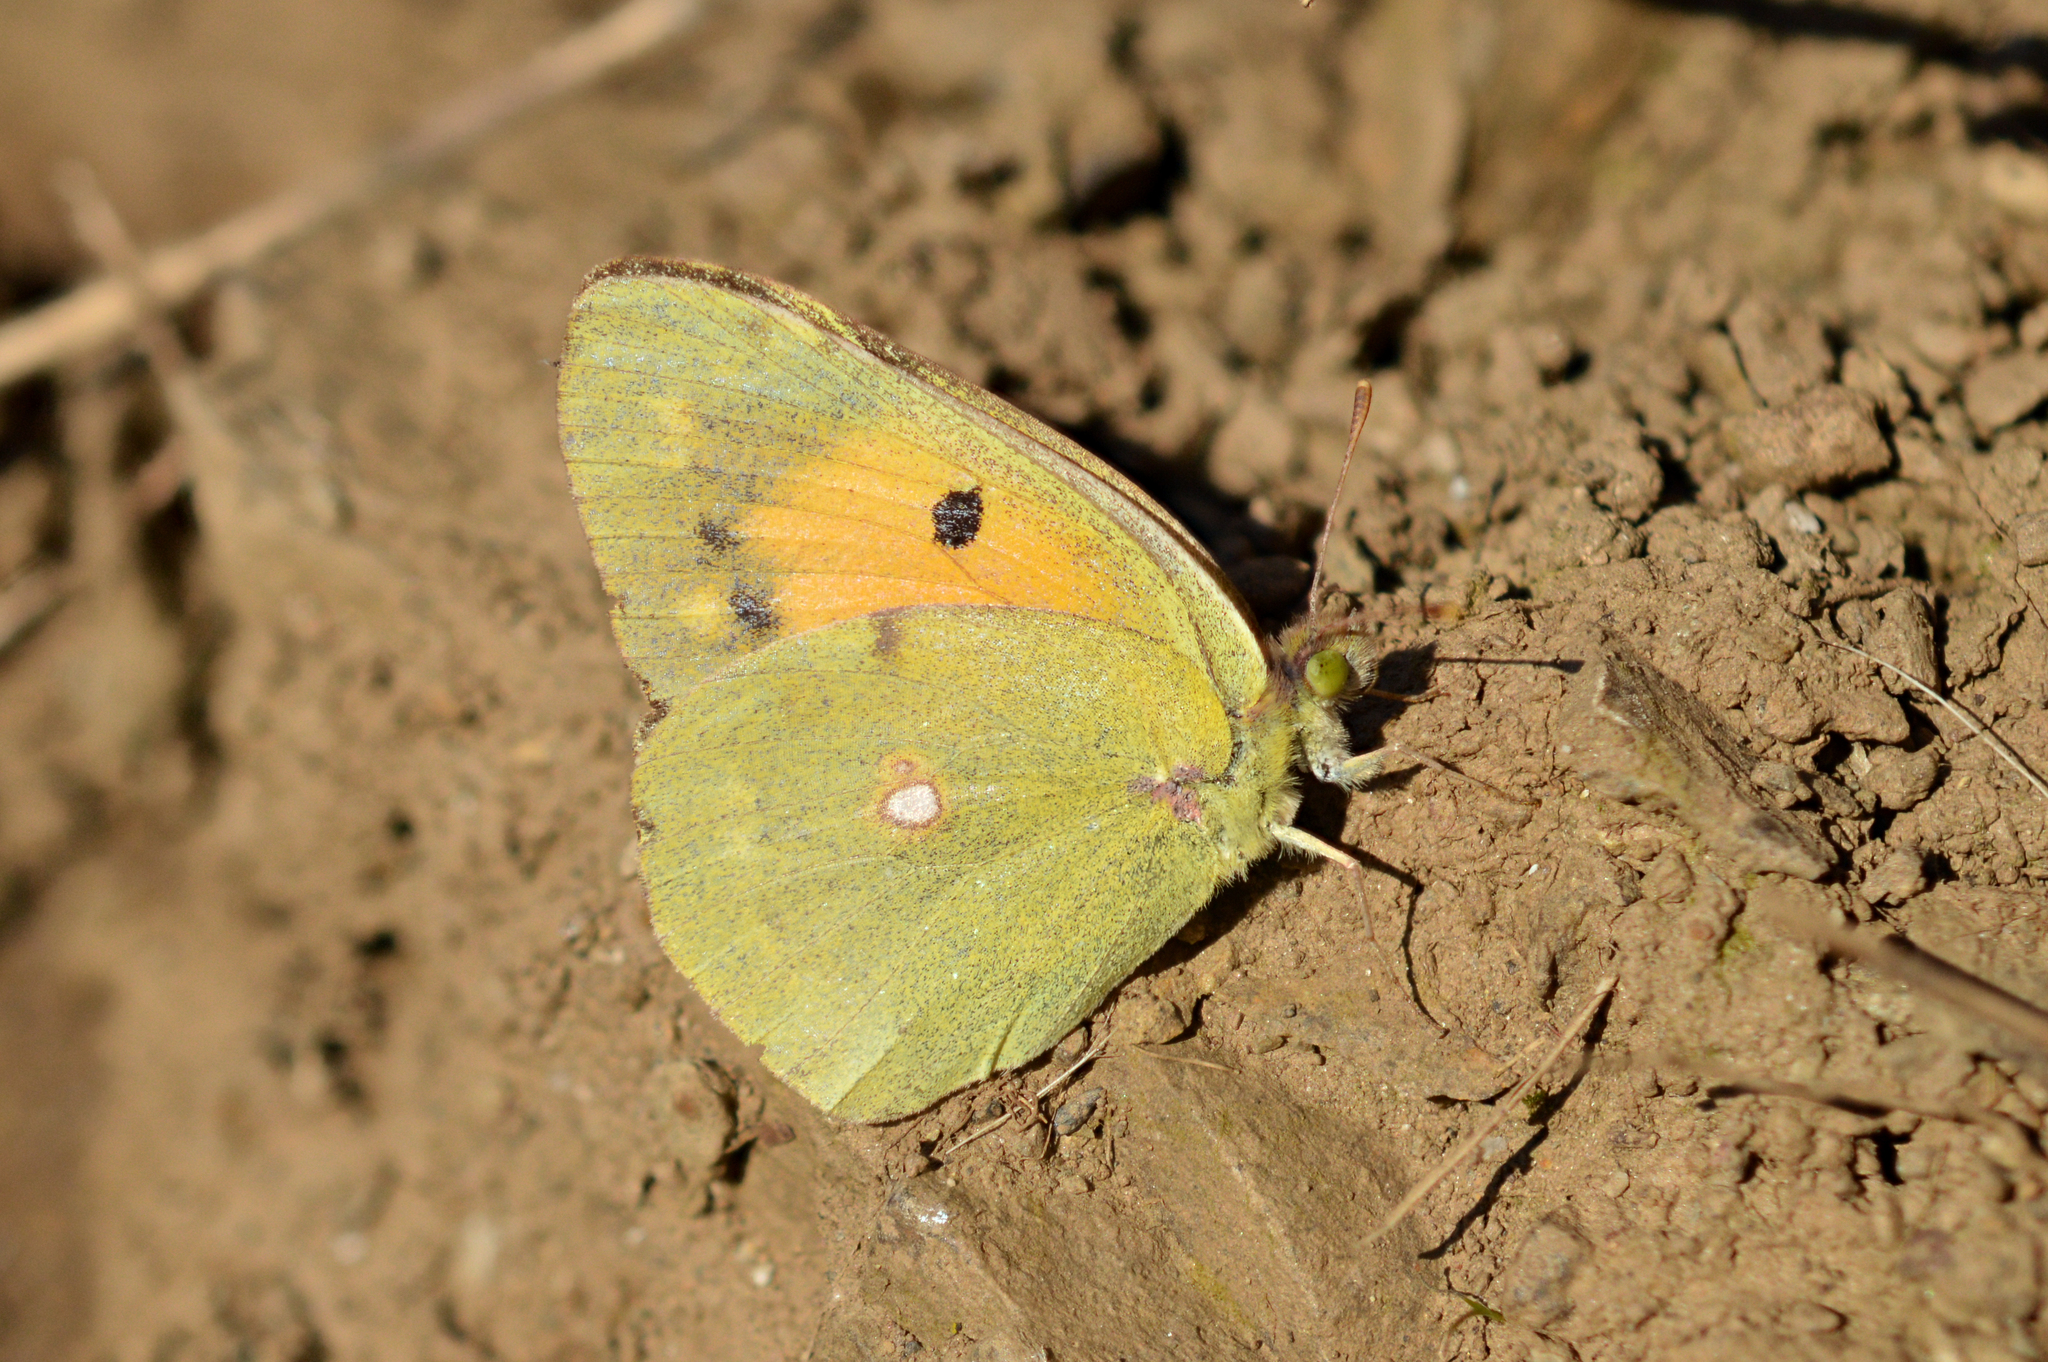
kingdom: Animalia
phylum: Arthropoda
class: Insecta
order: Lepidoptera
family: Pieridae
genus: Colias
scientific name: Colias croceus
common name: Clouded yellow
